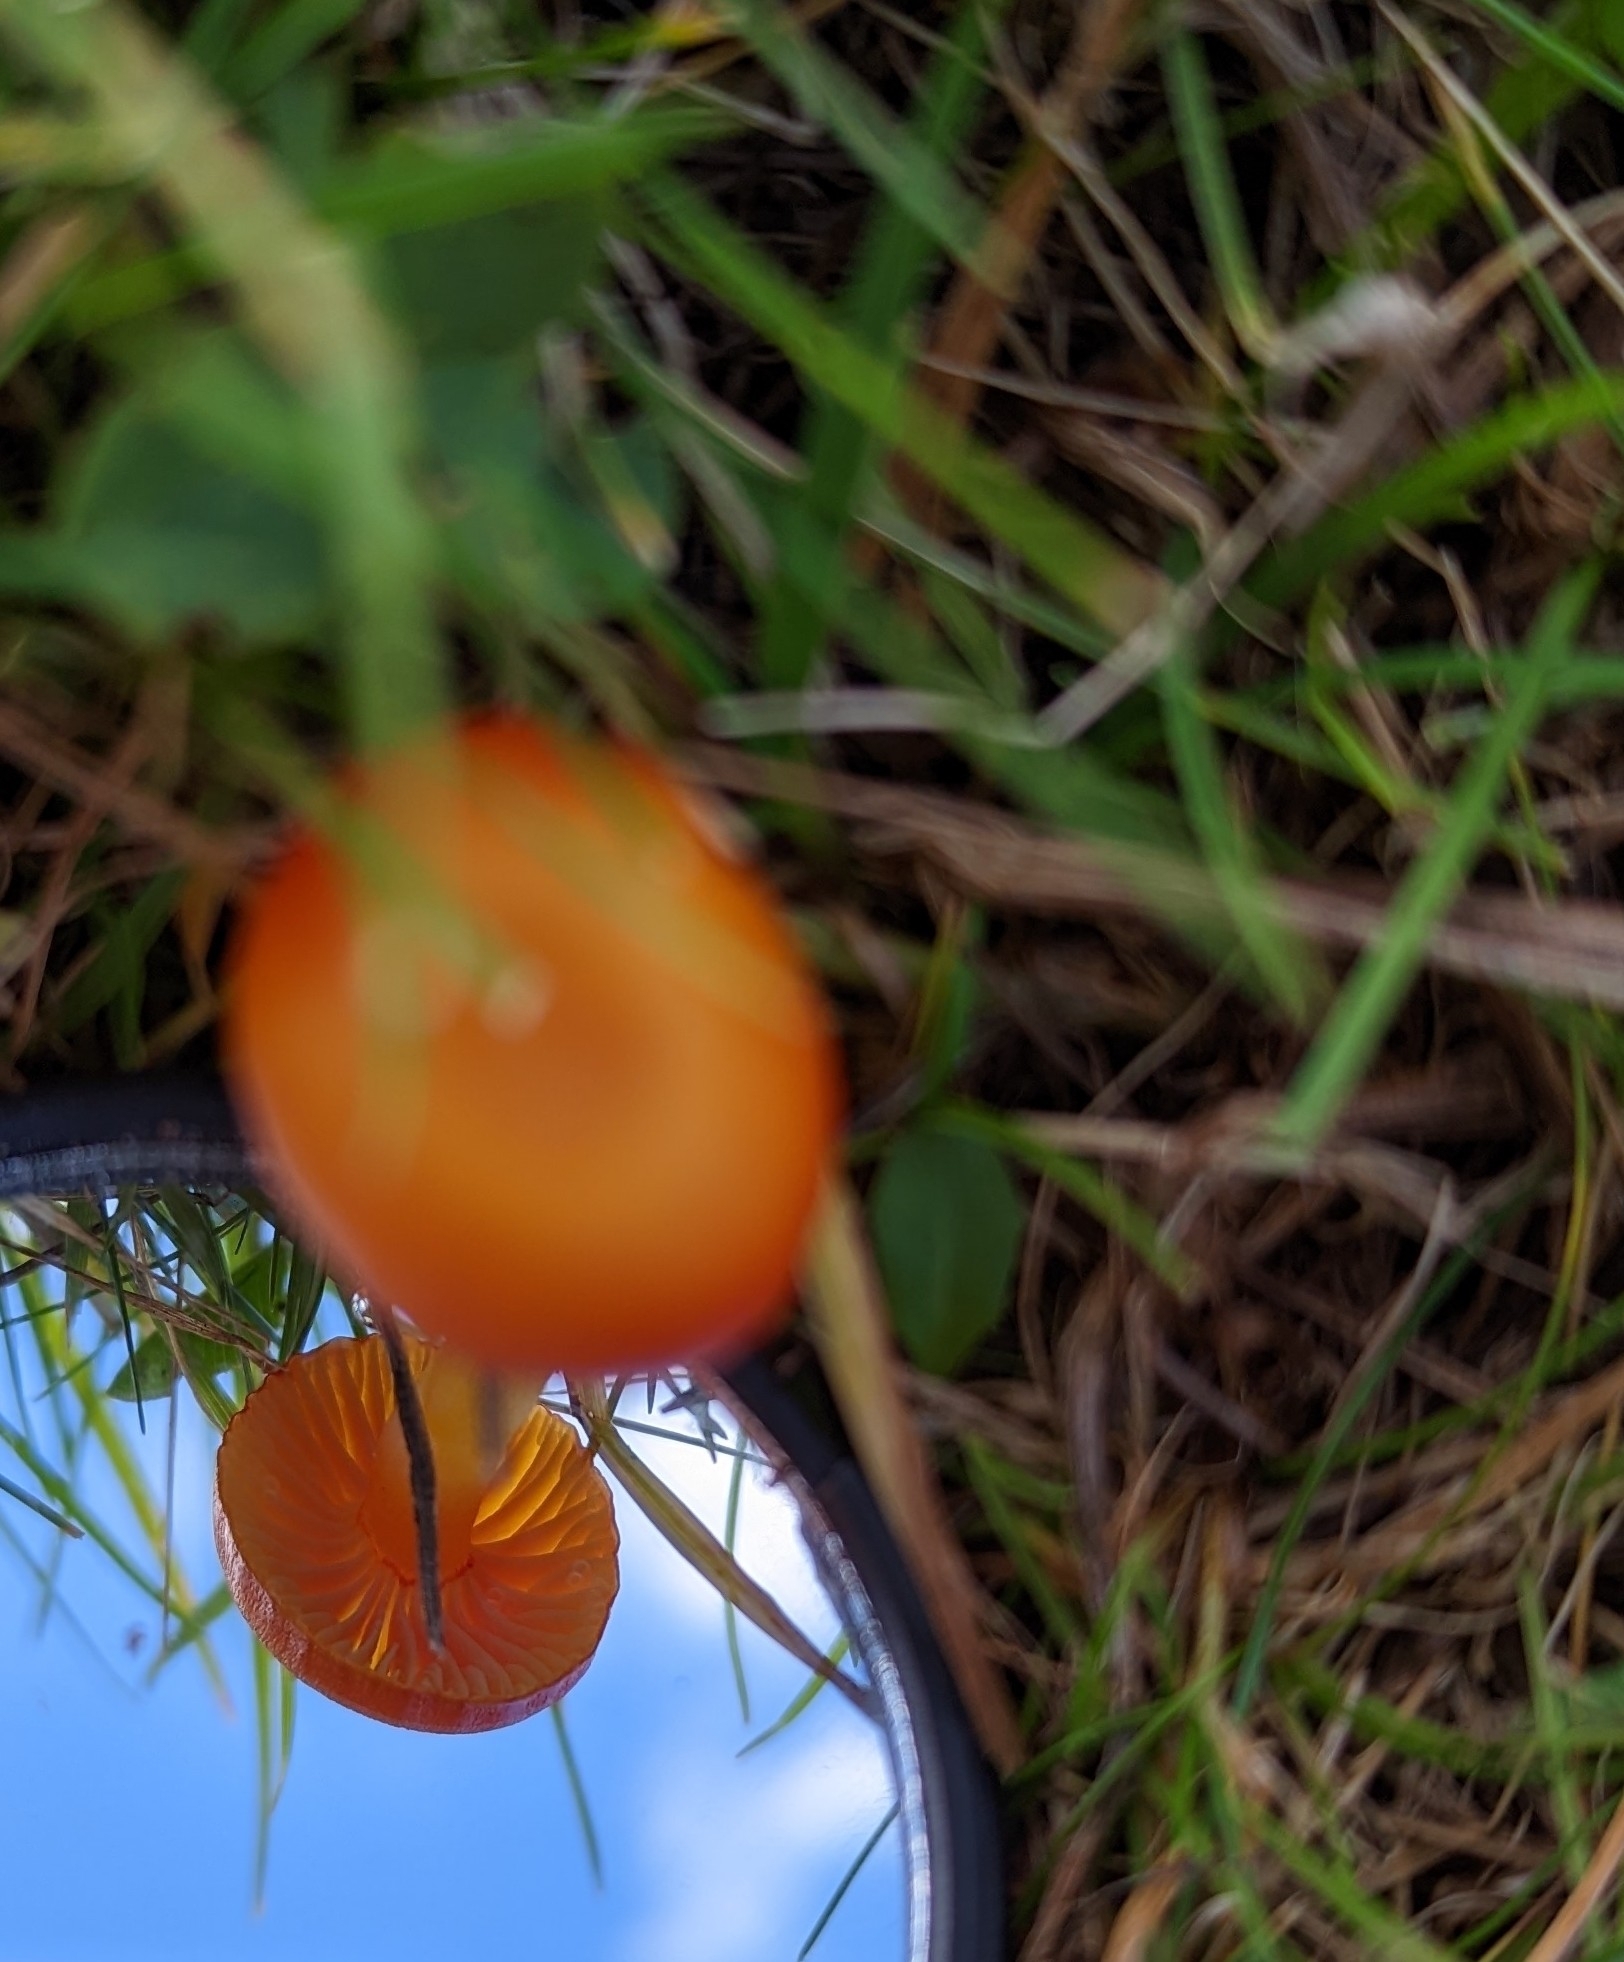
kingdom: Fungi
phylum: Basidiomycota
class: Agaricomycetes
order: Agaricales
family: Hygrophoraceae
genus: Hygrocybe
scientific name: Hygrocybe insipida
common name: Spangle waxcap
